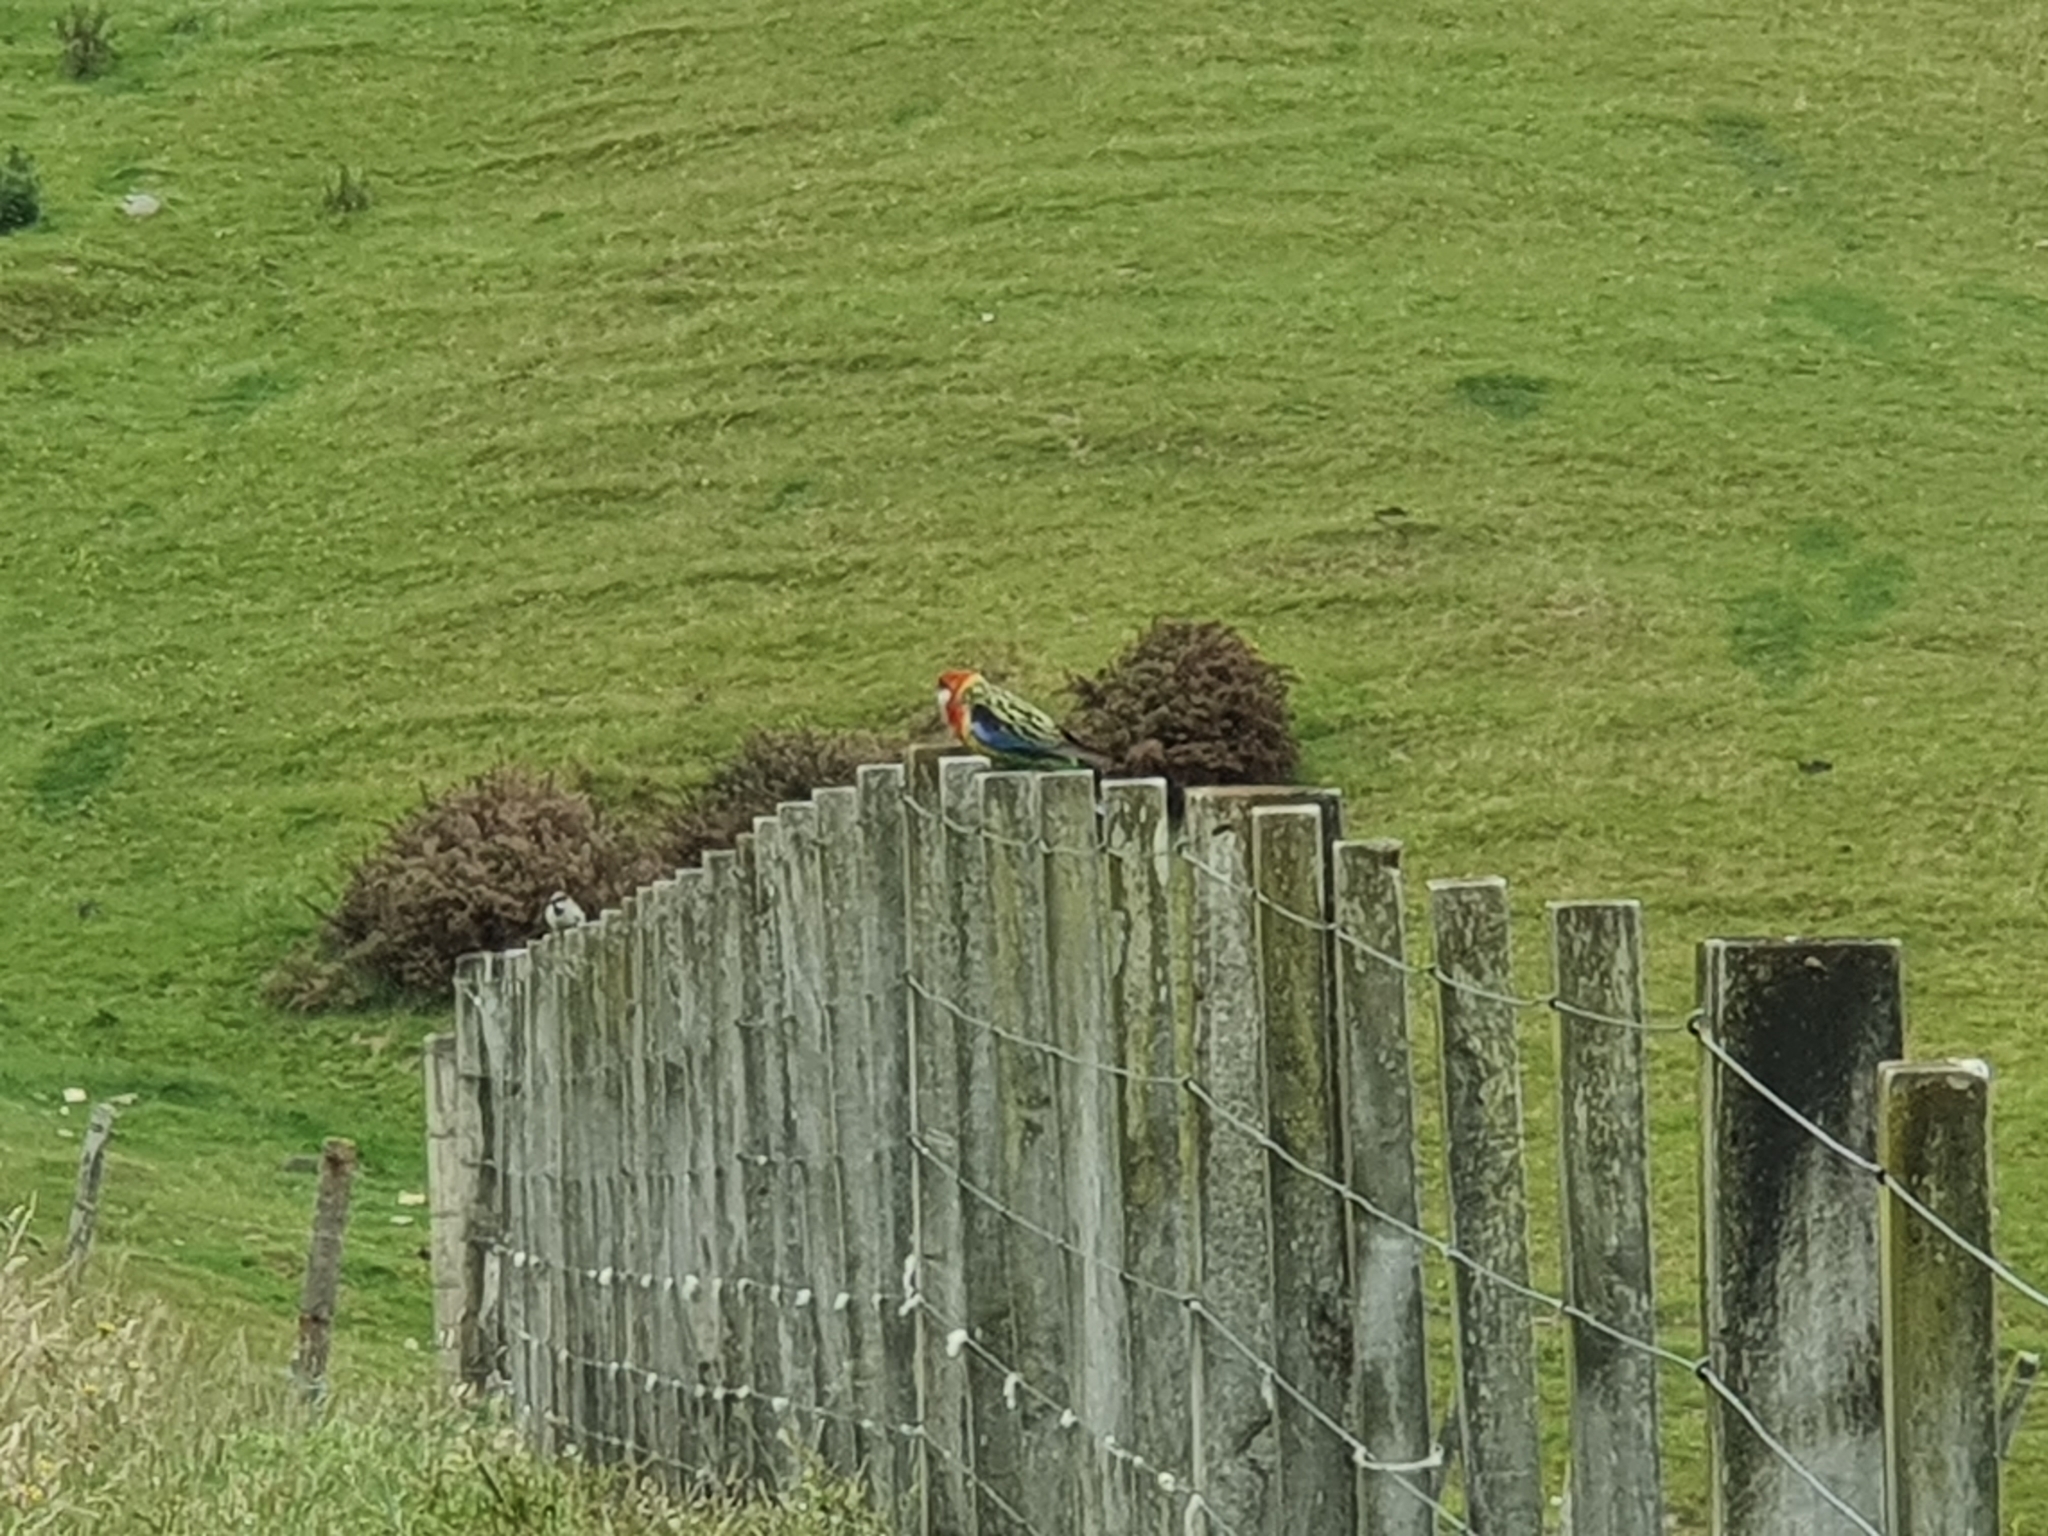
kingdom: Animalia
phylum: Chordata
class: Aves
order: Psittaciformes
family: Psittacidae
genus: Platycercus
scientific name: Platycercus eximius
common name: Eastern rosella
